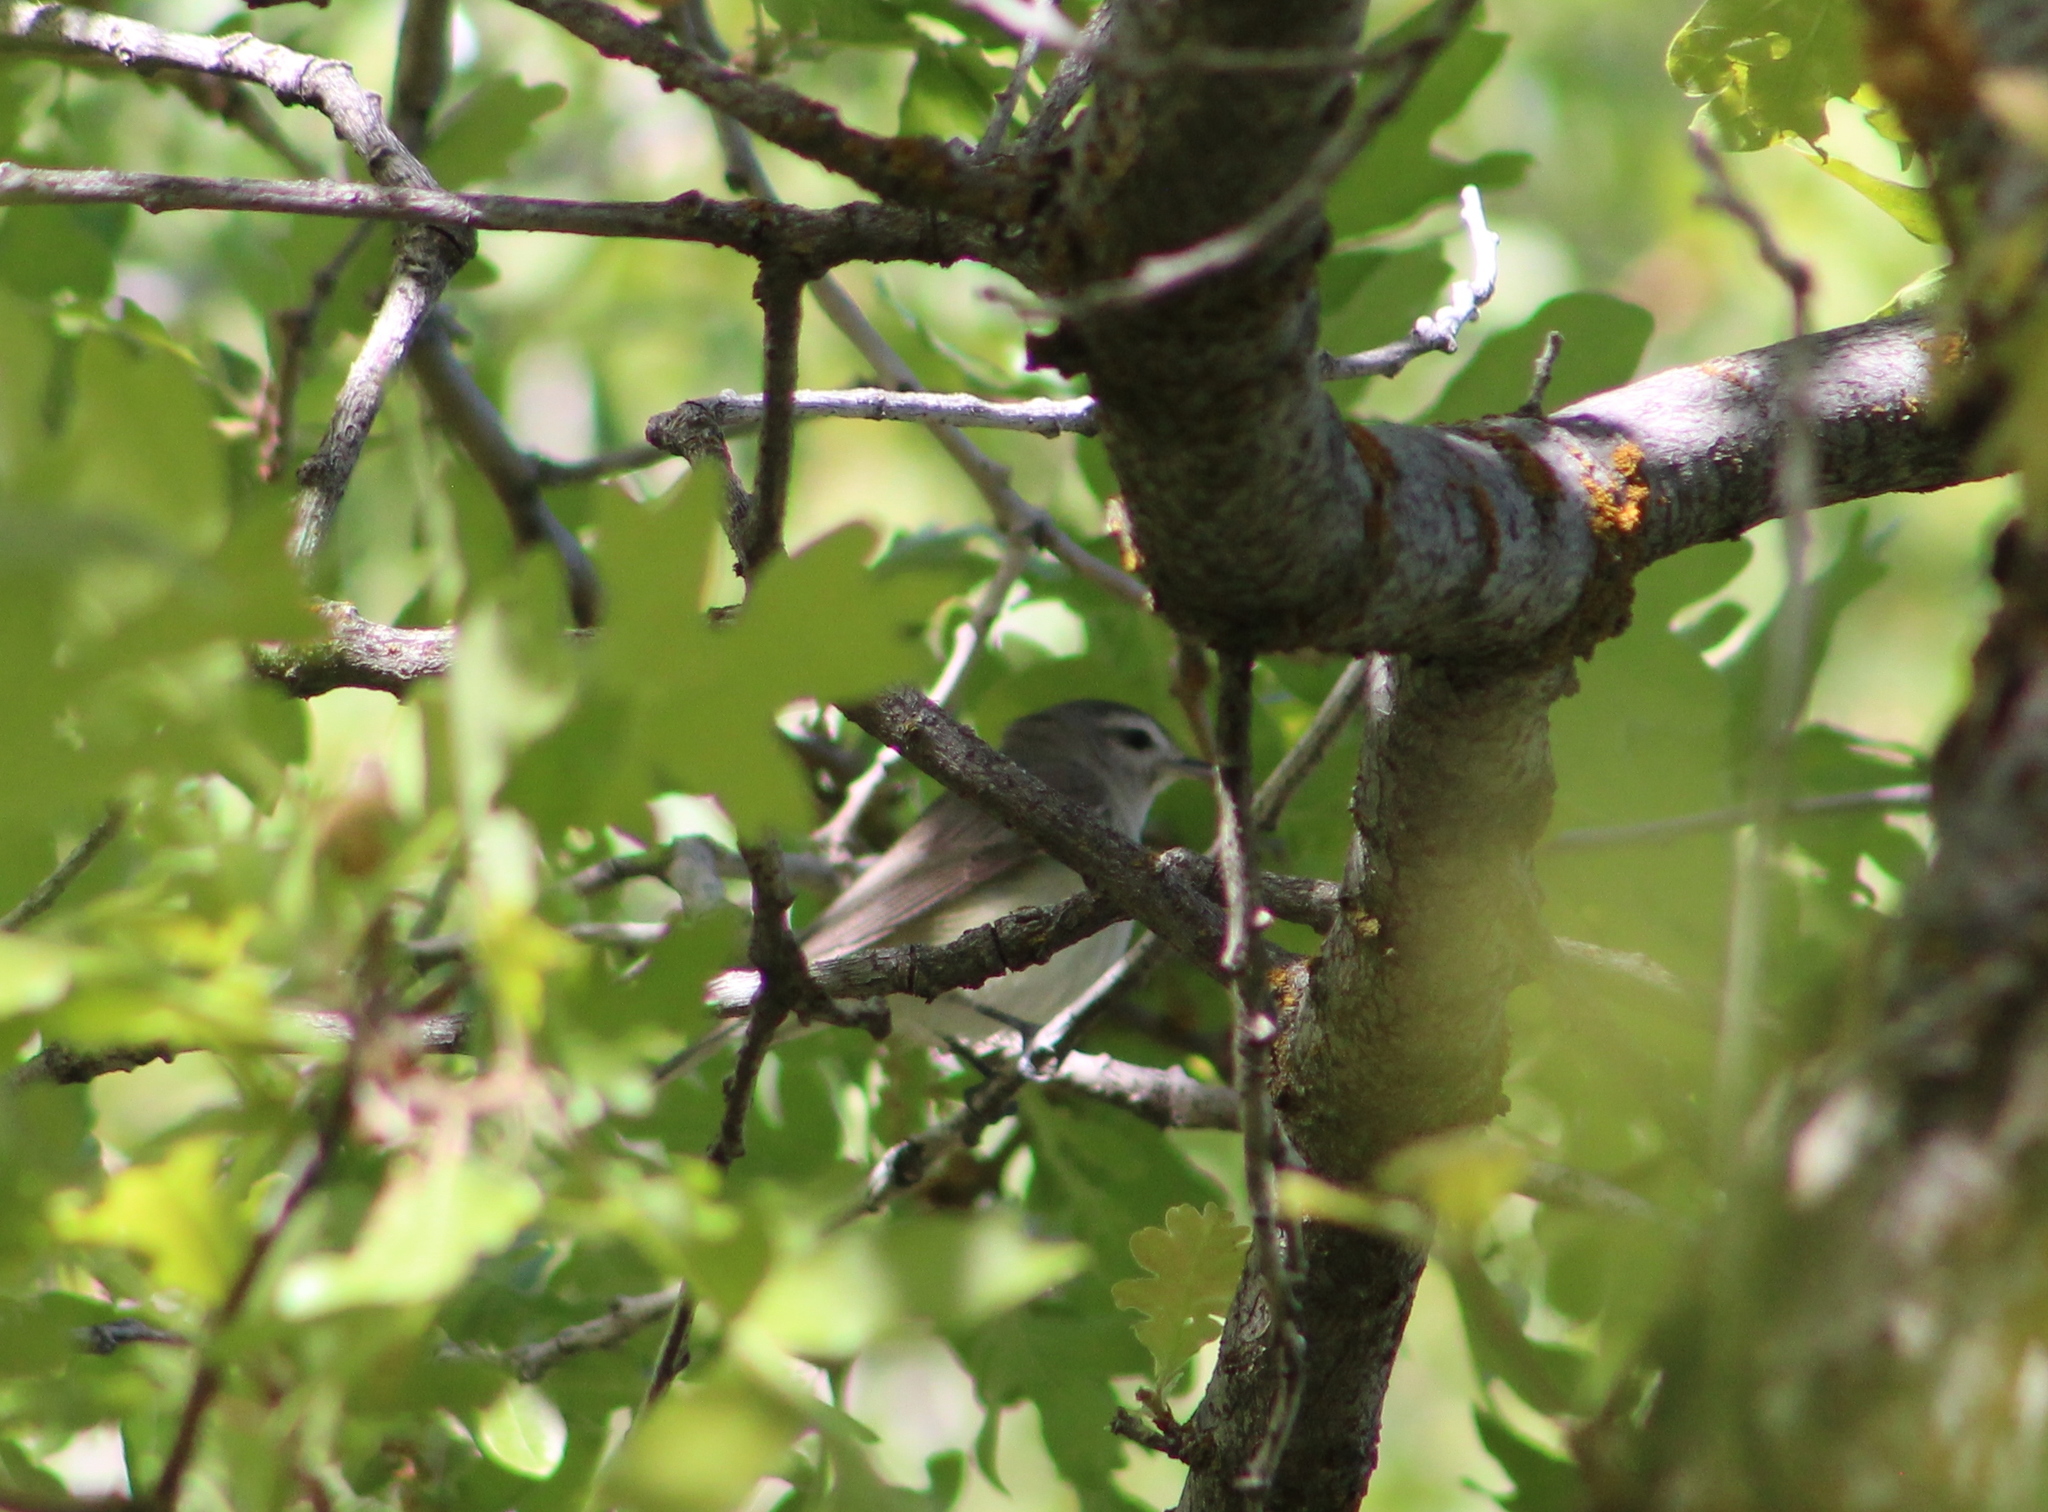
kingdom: Animalia
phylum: Chordata
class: Aves
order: Passeriformes
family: Vireonidae
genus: Vireo
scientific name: Vireo gilvus
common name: Warbling vireo
